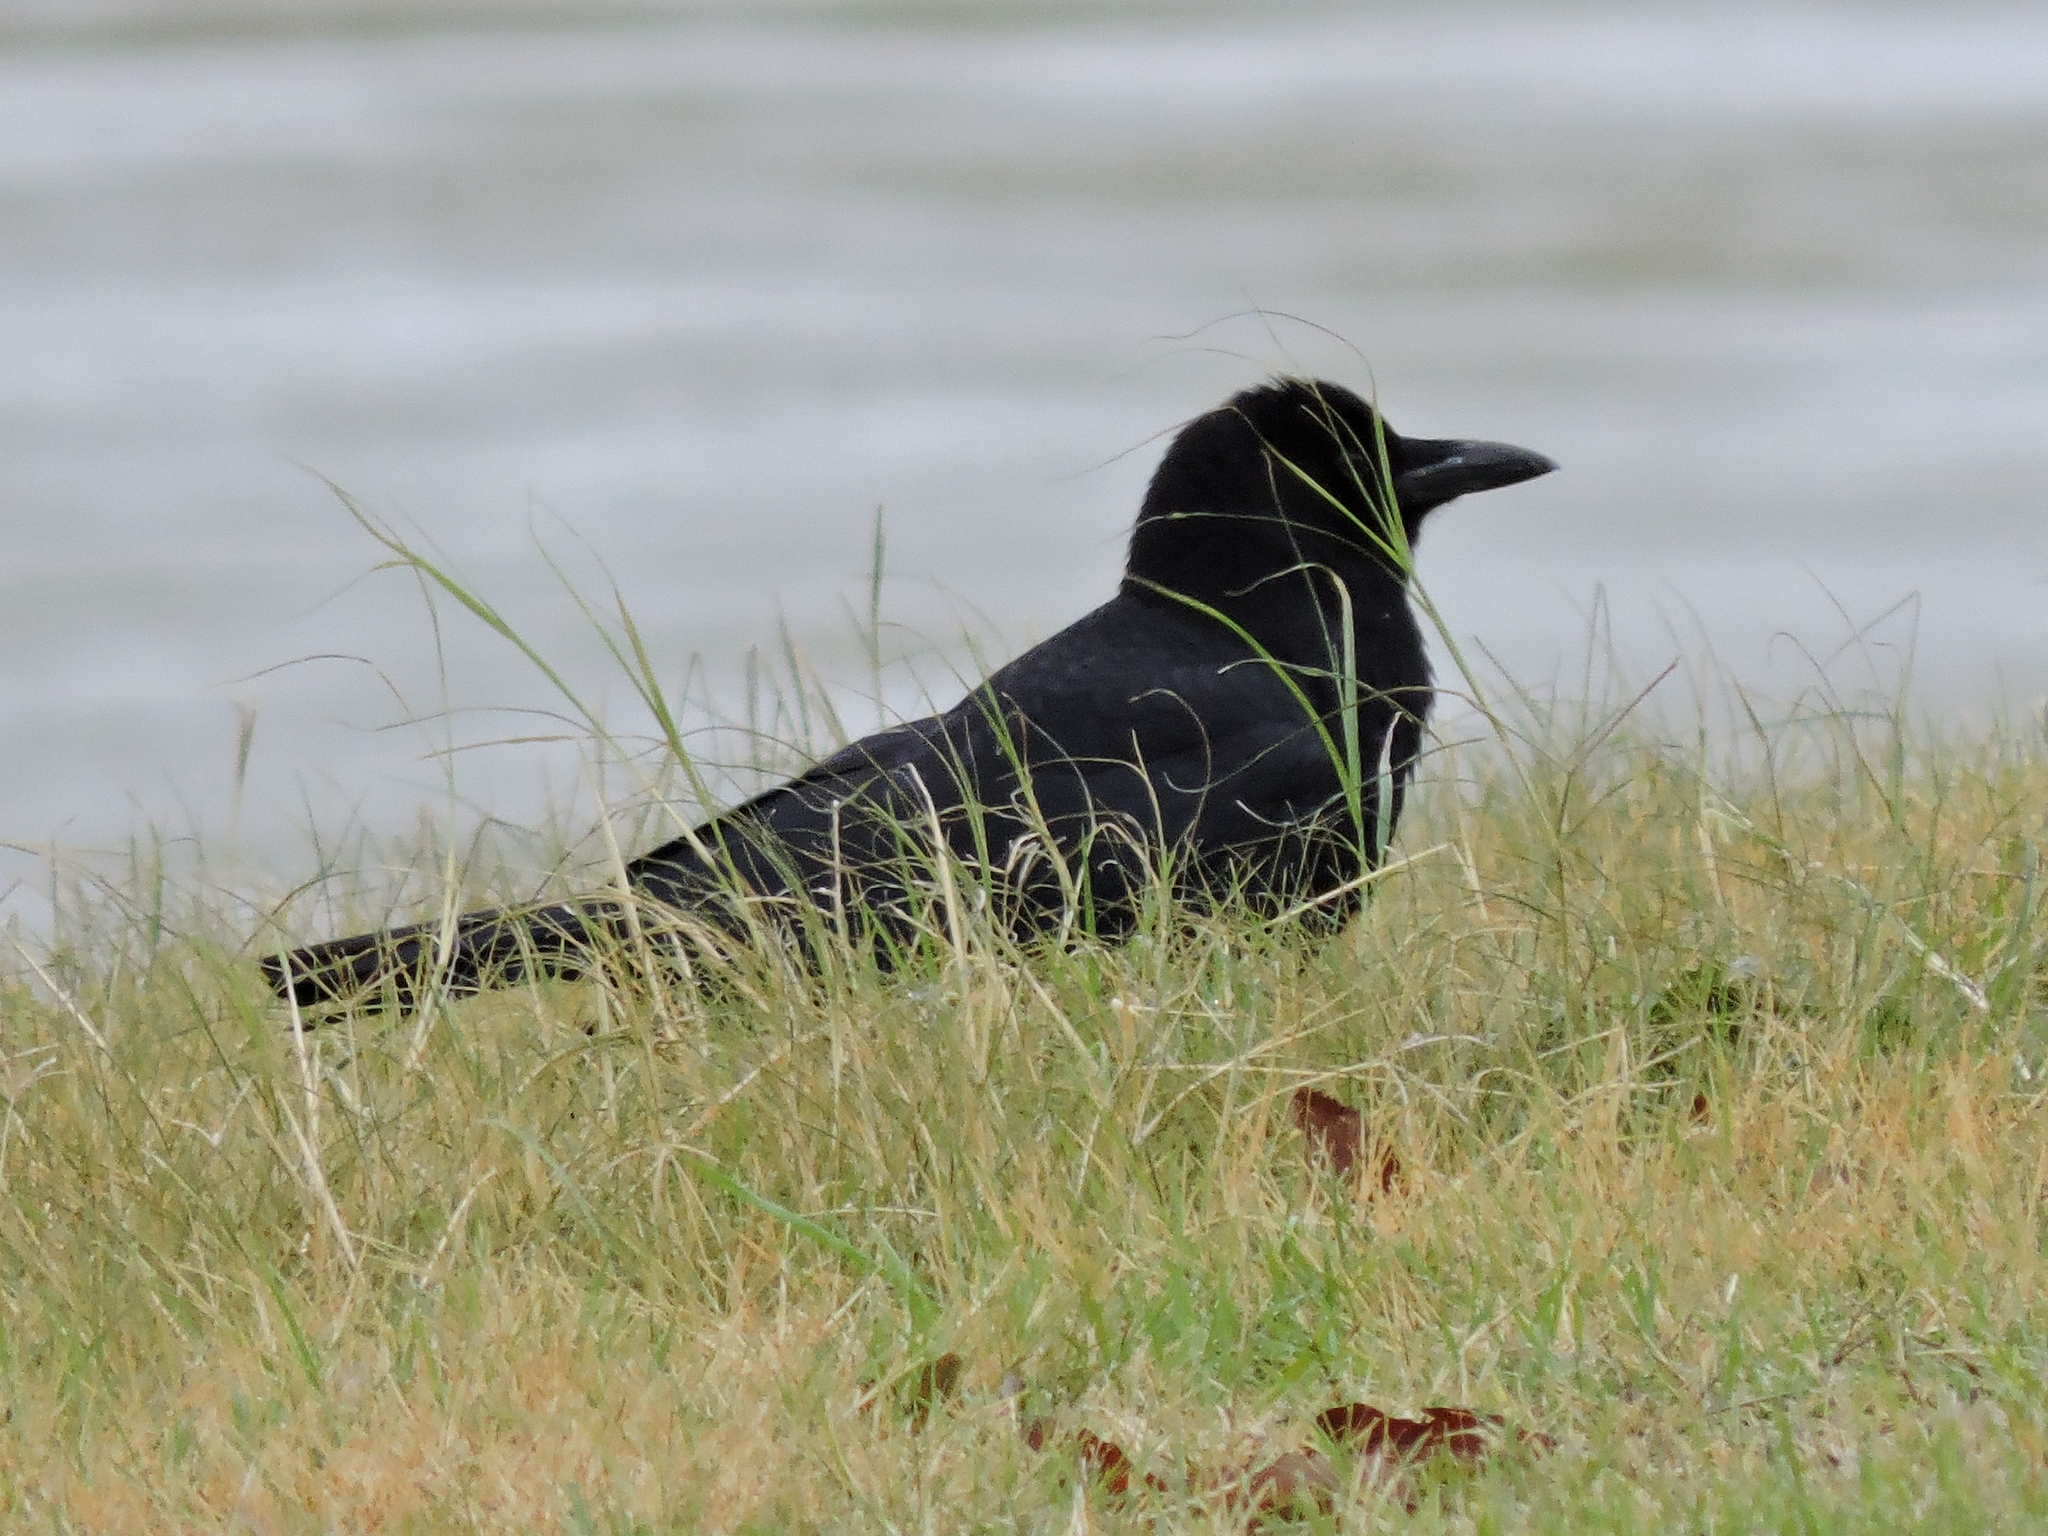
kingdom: Animalia
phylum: Chordata
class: Aves
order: Passeriformes
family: Corvidae
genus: Corvus
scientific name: Corvus brachyrhynchos
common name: American crow
